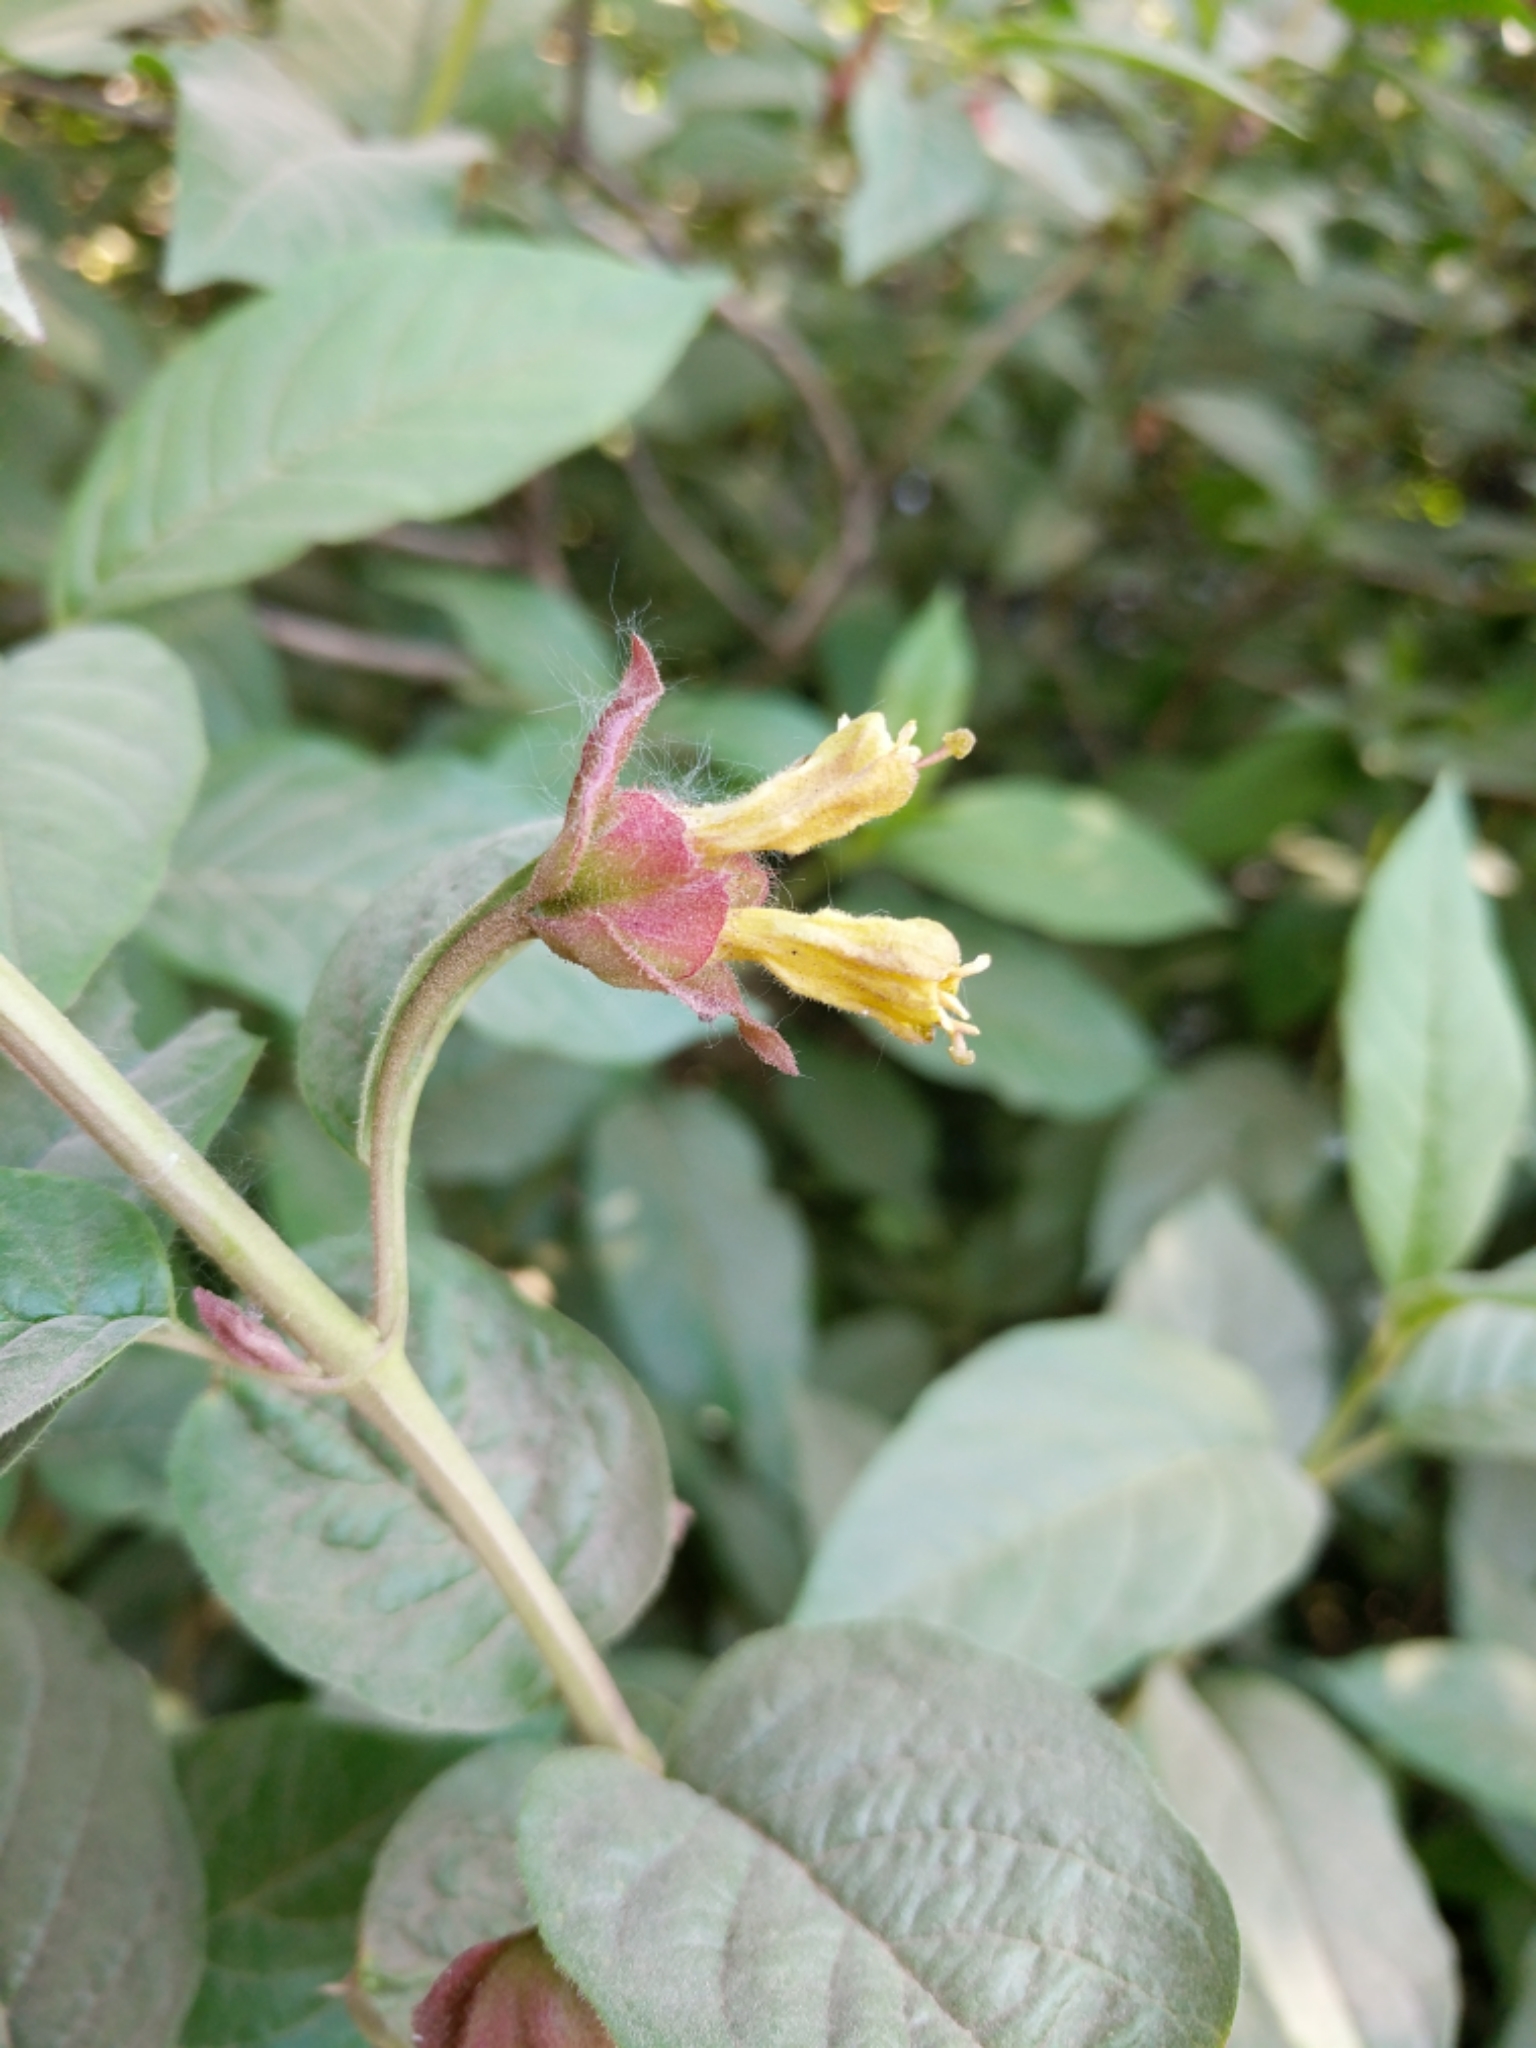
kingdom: Plantae
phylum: Tracheophyta
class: Magnoliopsida
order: Dipsacales
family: Caprifoliaceae
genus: Lonicera
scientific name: Lonicera involucrata
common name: Californian honeysuckle
